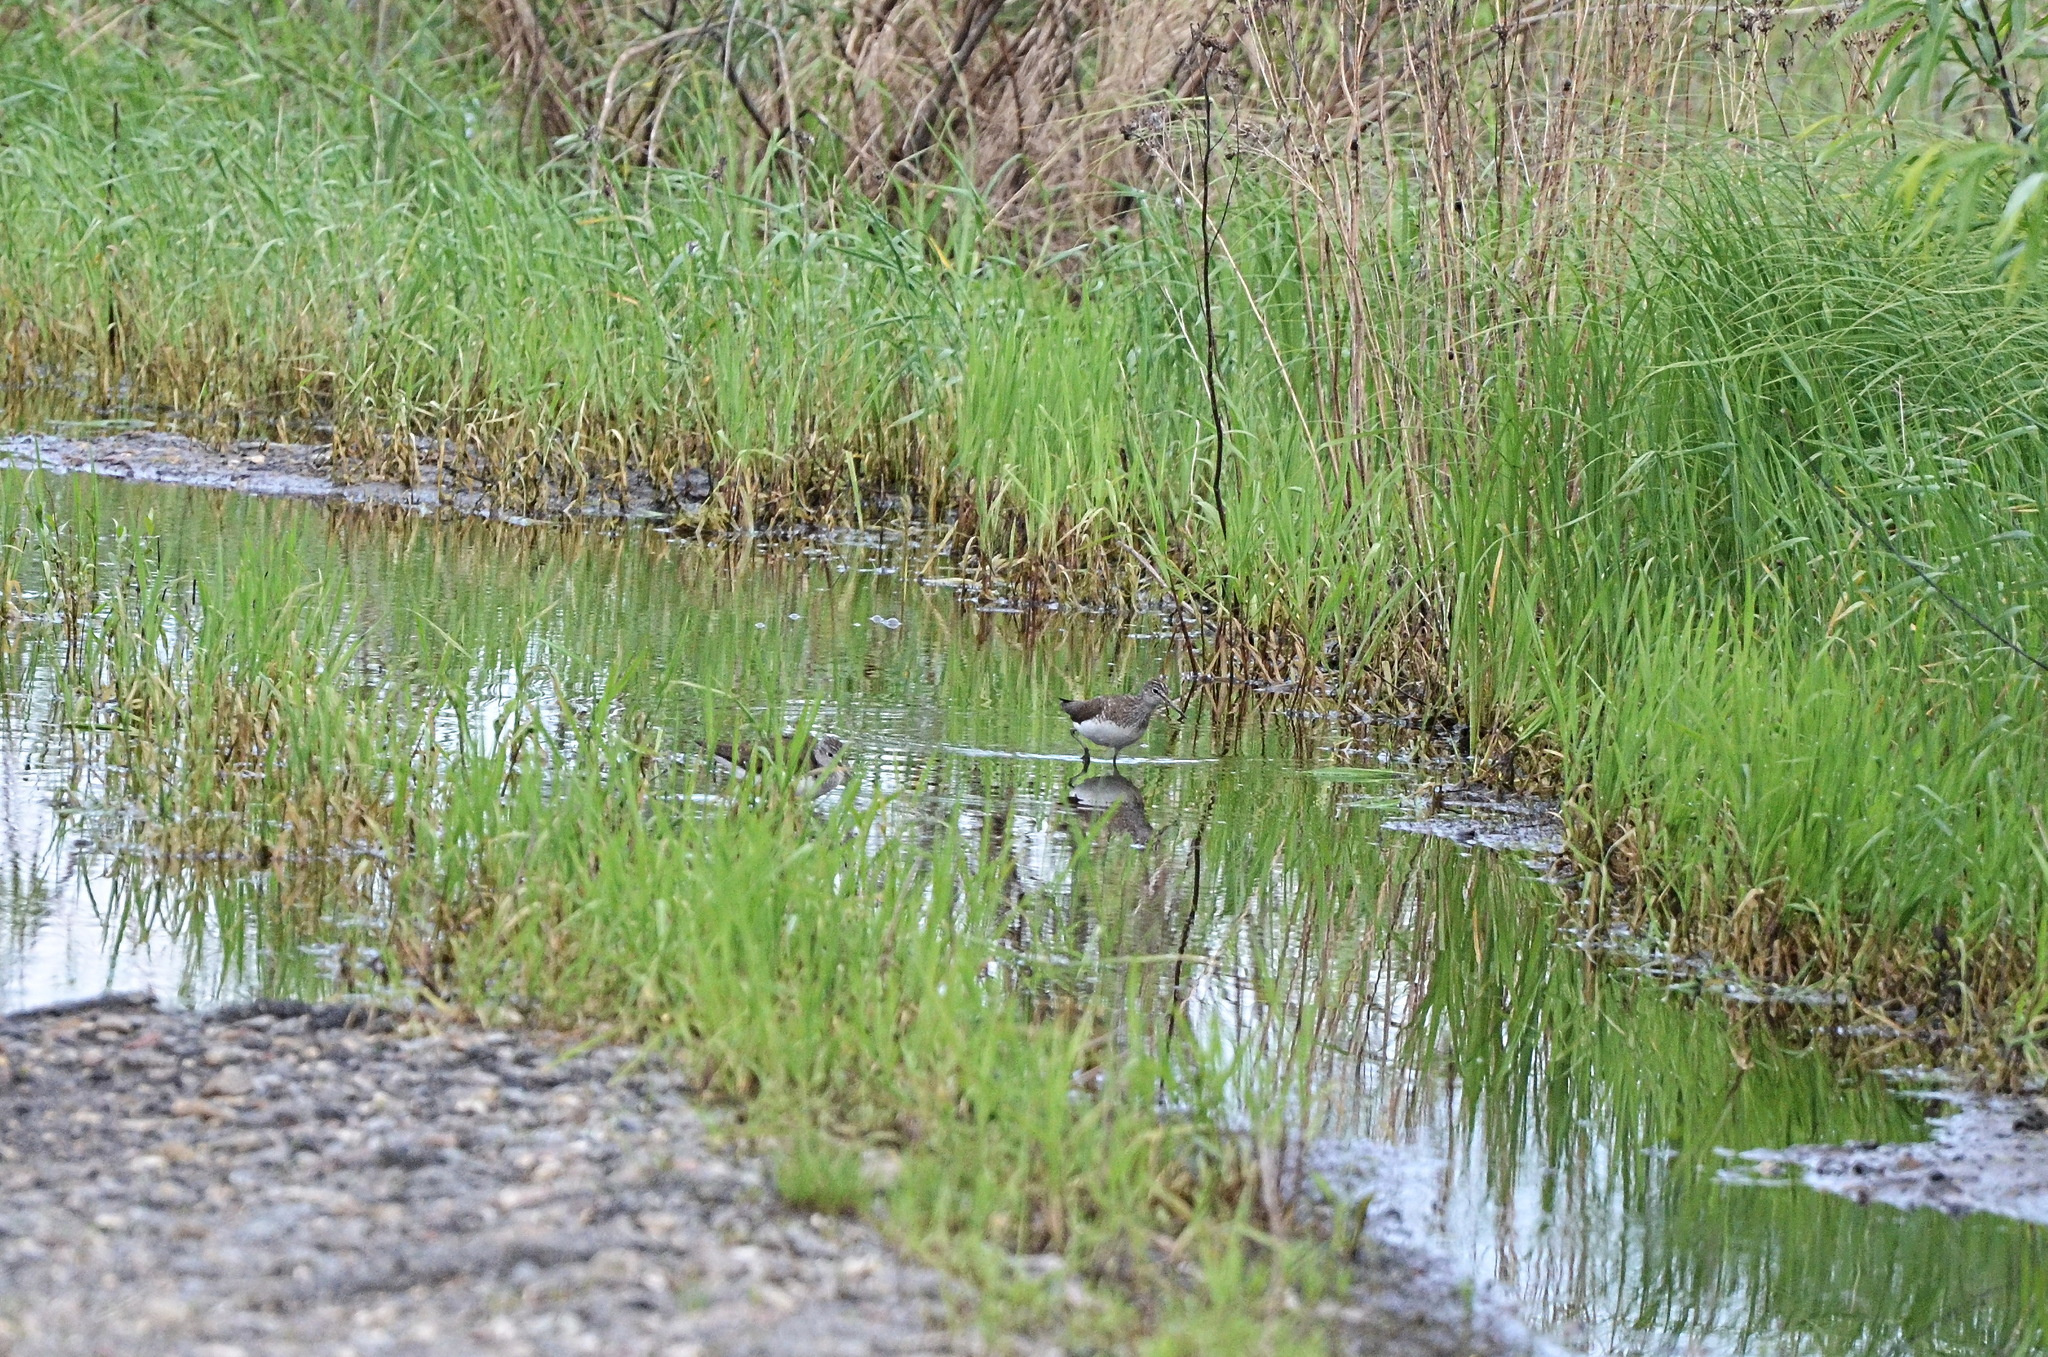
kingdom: Animalia
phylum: Chordata
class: Aves
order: Charadriiformes
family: Scolopacidae
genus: Tringa
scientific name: Tringa ochropus
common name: Green sandpiper
